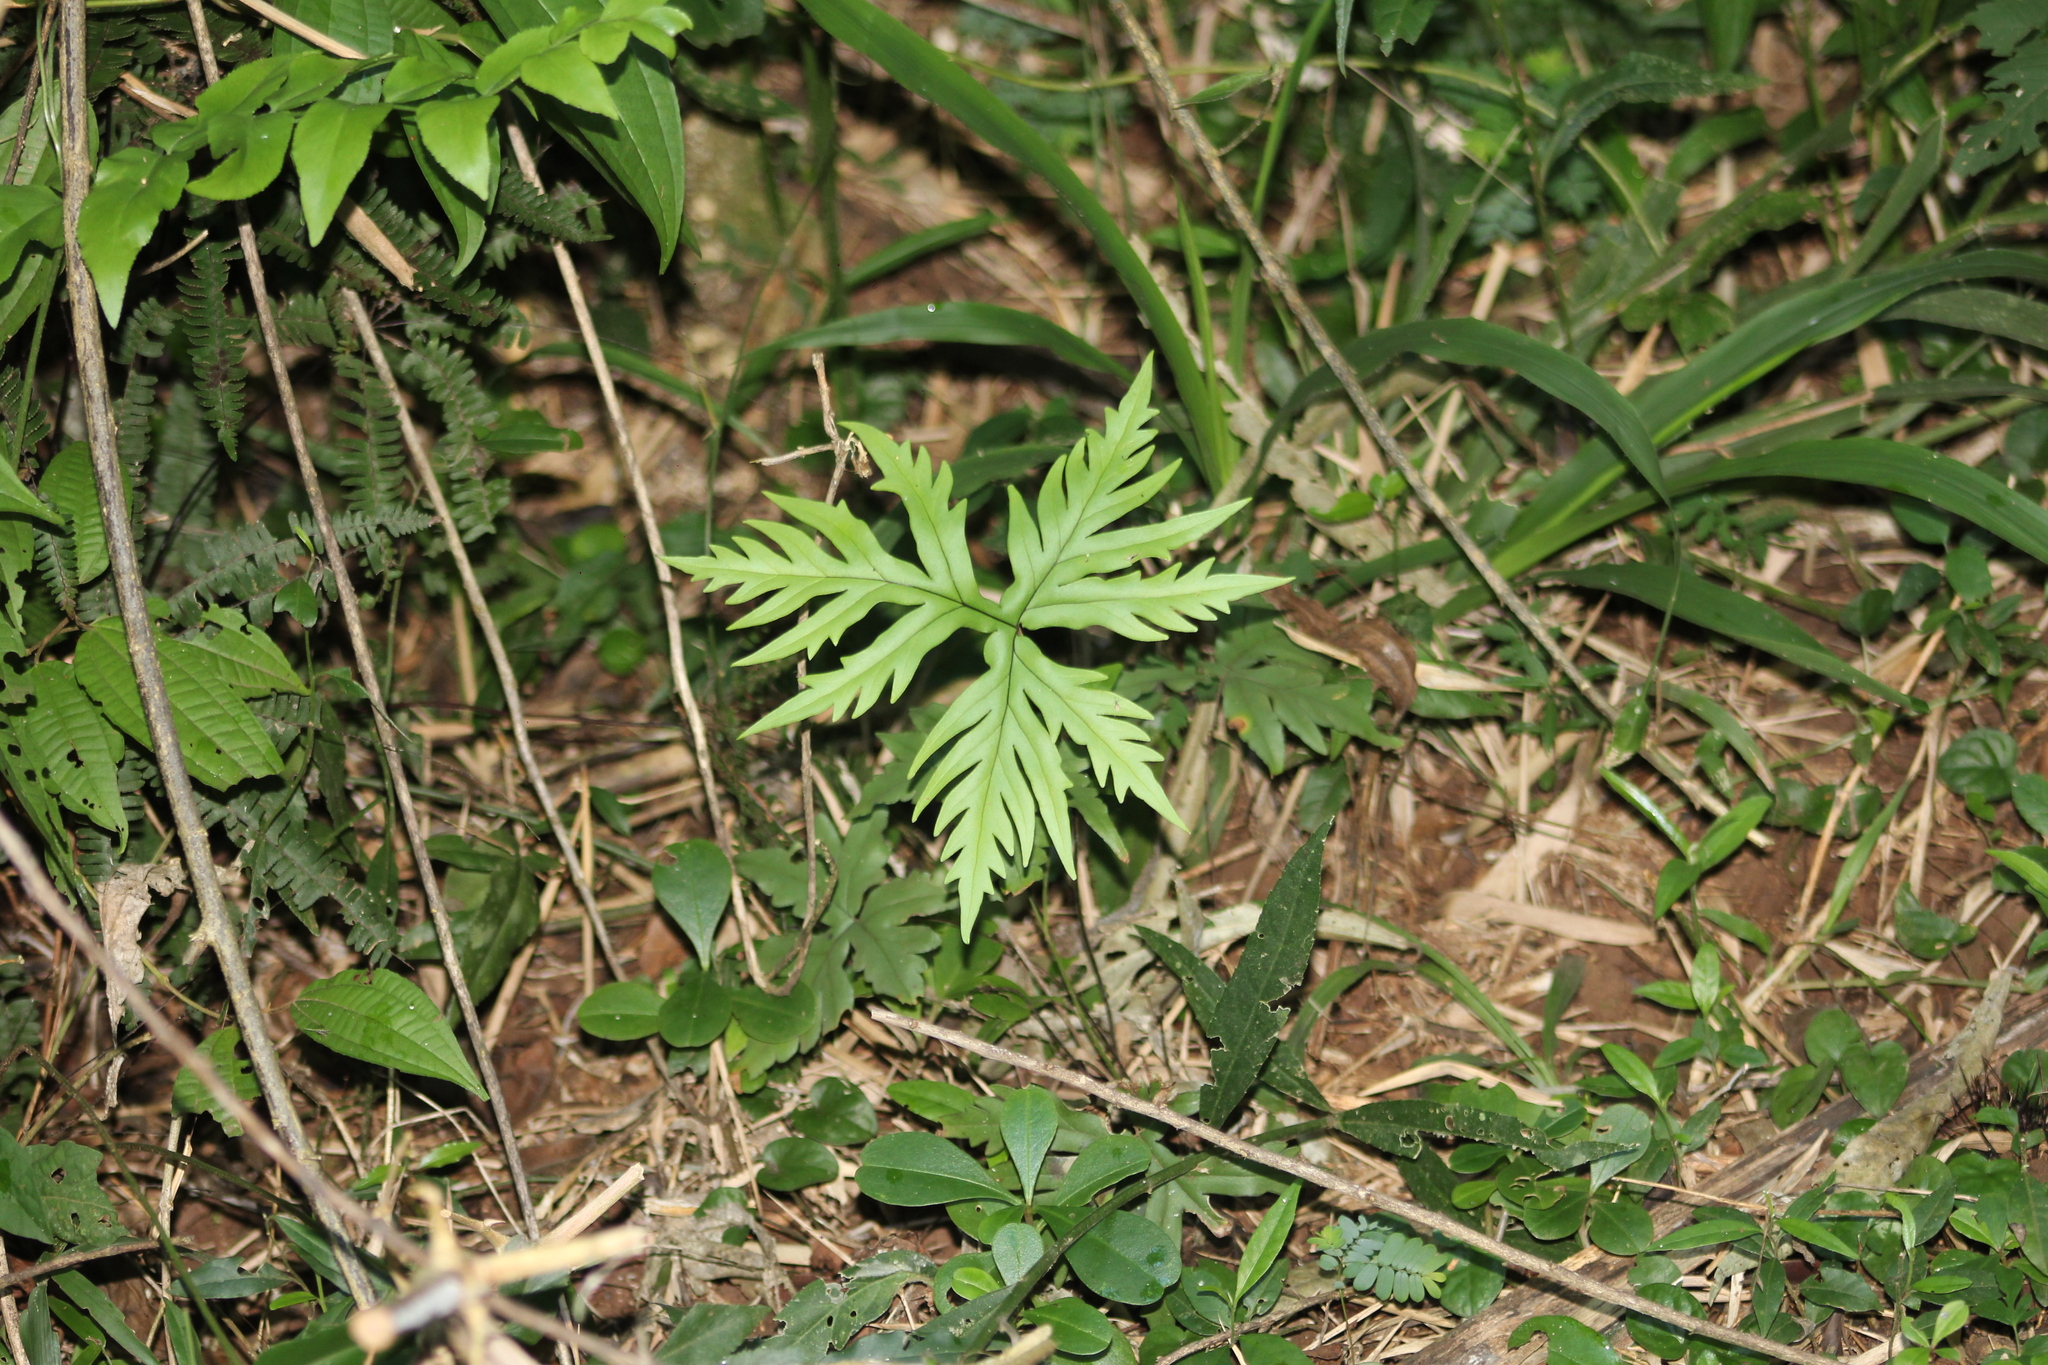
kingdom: Plantae
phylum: Tracheophyta
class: Polypodiopsida
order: Polypodiales
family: Pteridaceae
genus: Doryopteris
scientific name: Doryopteris pentagona
